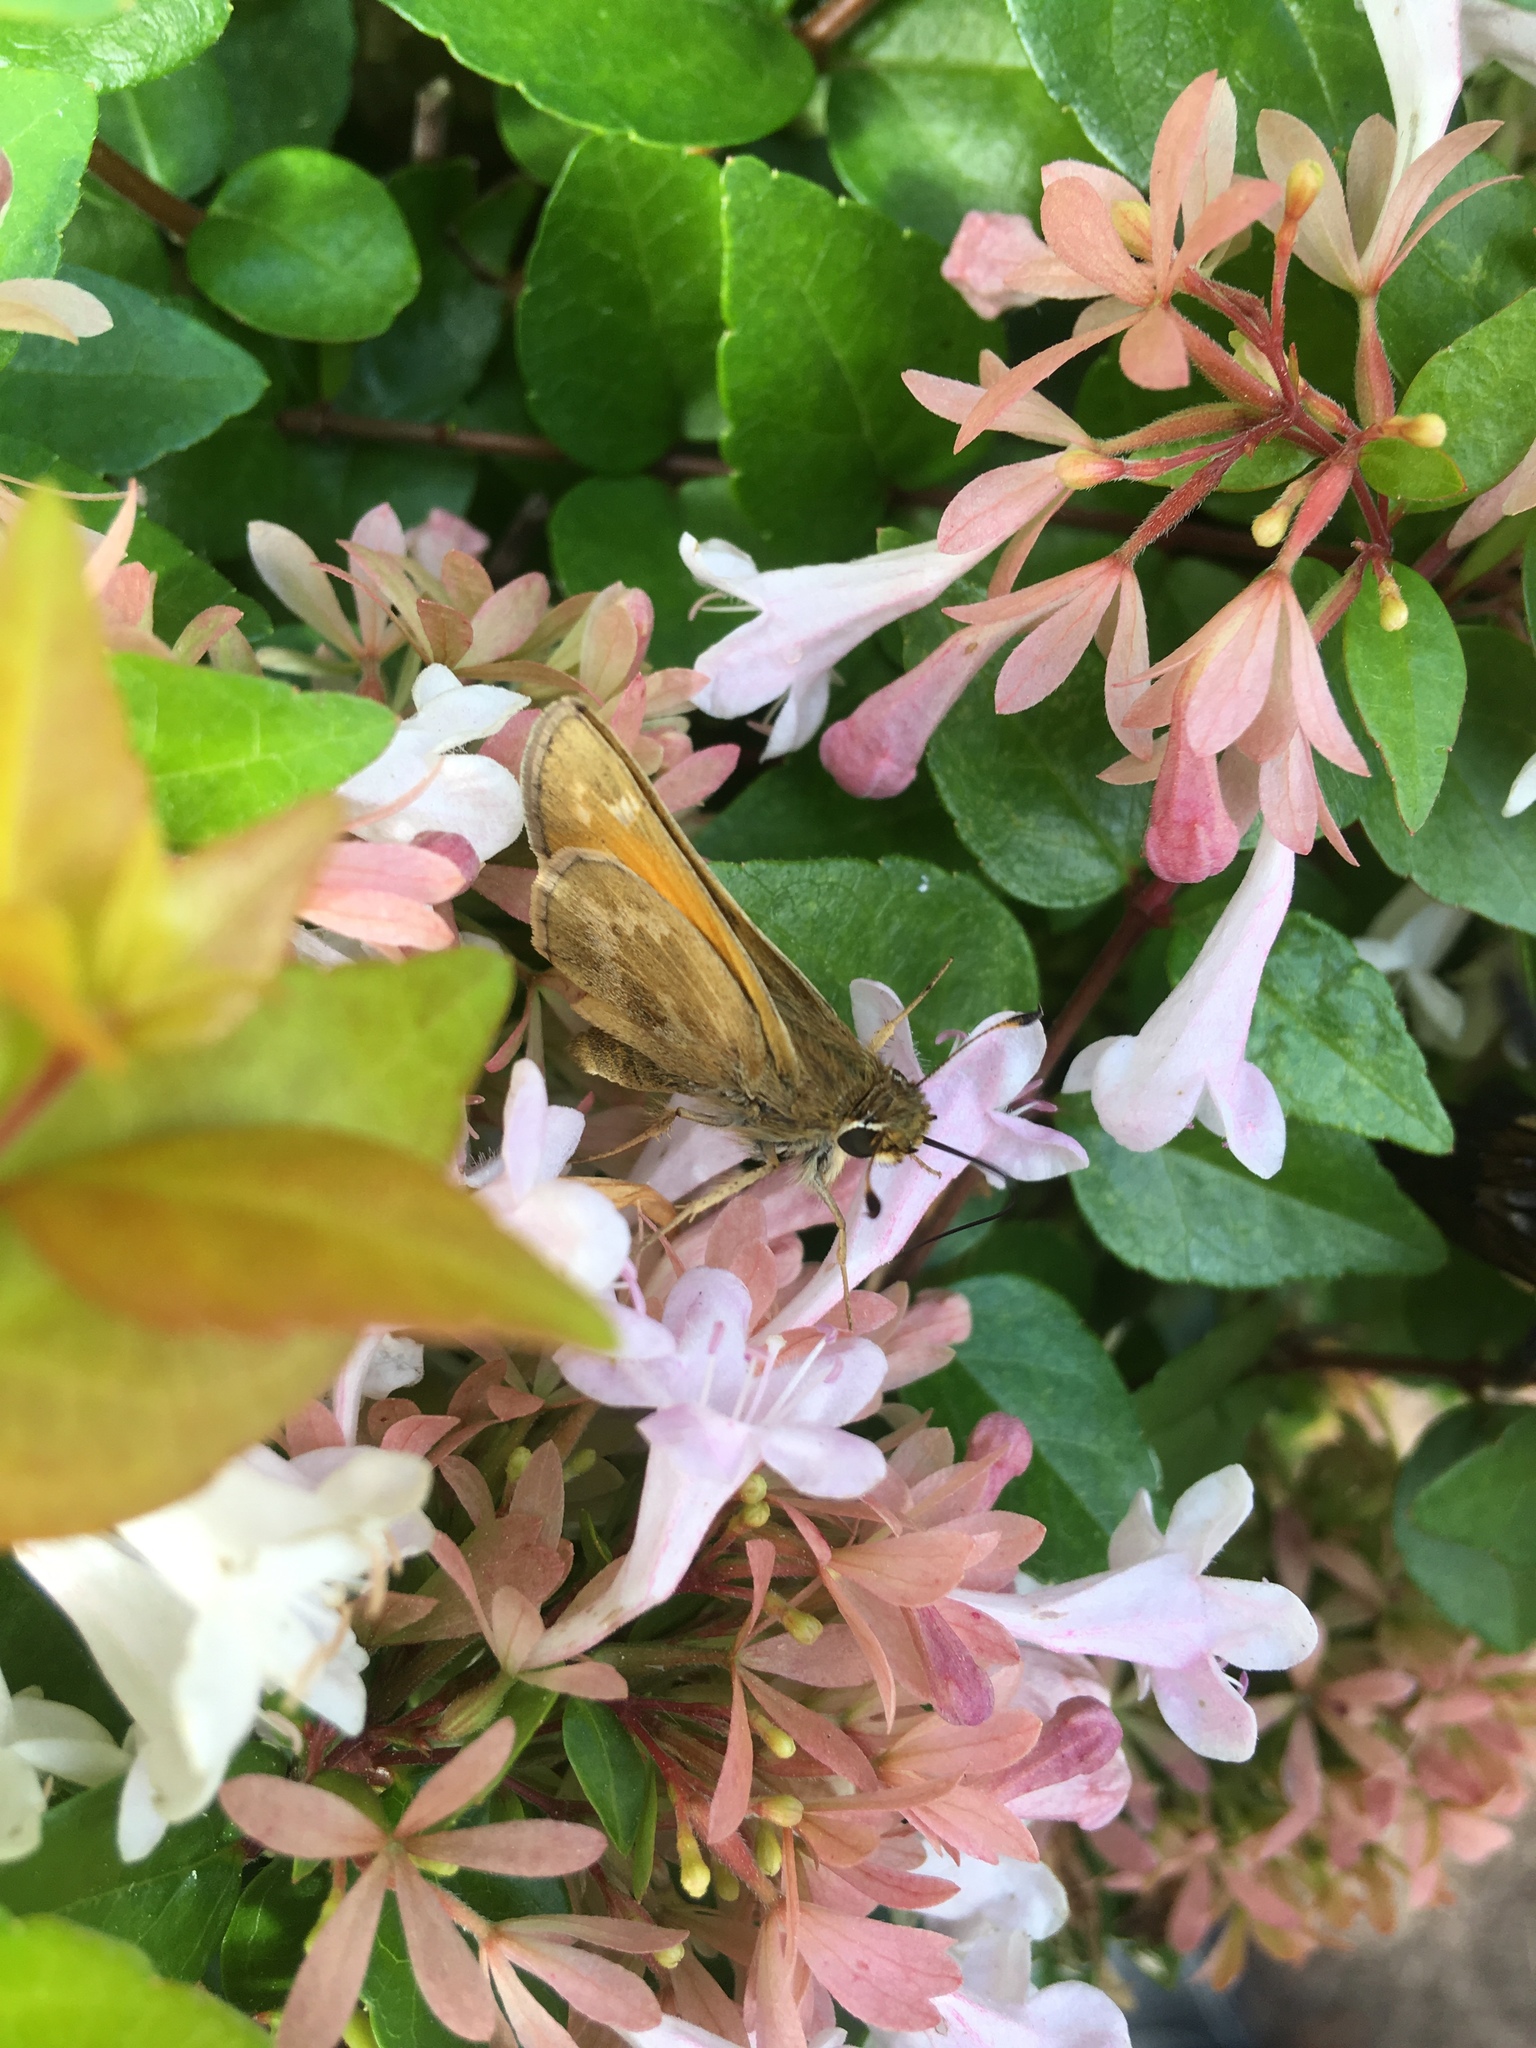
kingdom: Animalia
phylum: Arthropoda
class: Insecta
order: Lepidoptera
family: Hesperiidae
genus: Atalopedes
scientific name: Atalopedes
